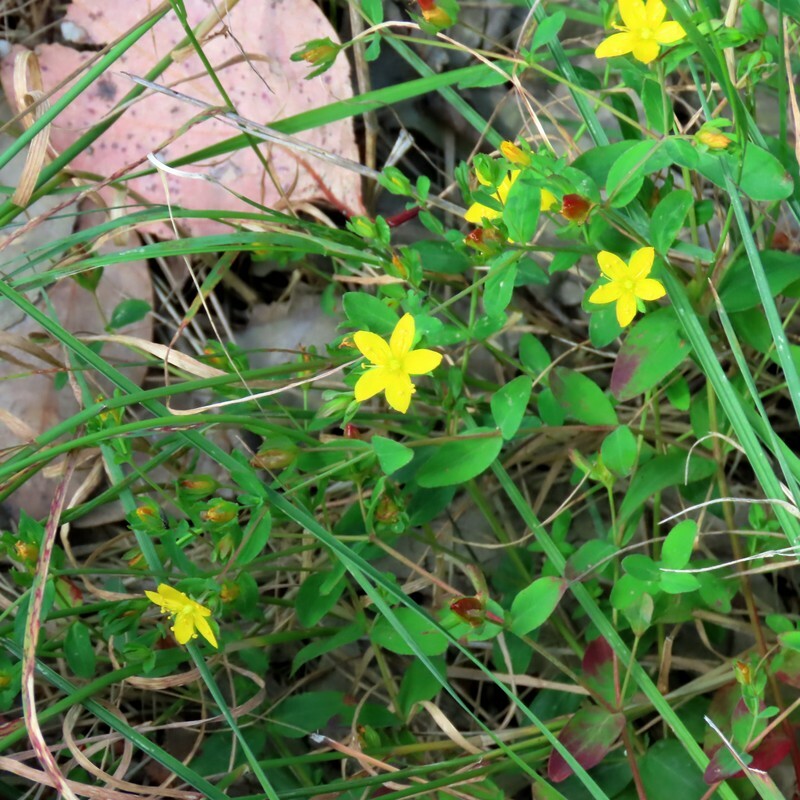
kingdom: Plantae
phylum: Tracheophyta
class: Magnoliopsida
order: Malpighiales
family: Hypericaceae
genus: Hypericum
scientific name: Hypericum gramineum
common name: Grassy st. johnswort
